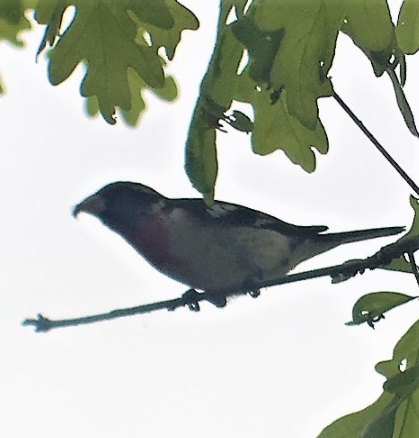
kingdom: Animalia
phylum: Chordata
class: Aves
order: Passeriformes
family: Cardinalidae
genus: Pheucticus
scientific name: Pheucticus ludovicianus
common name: Rose-breasted grosbeak
